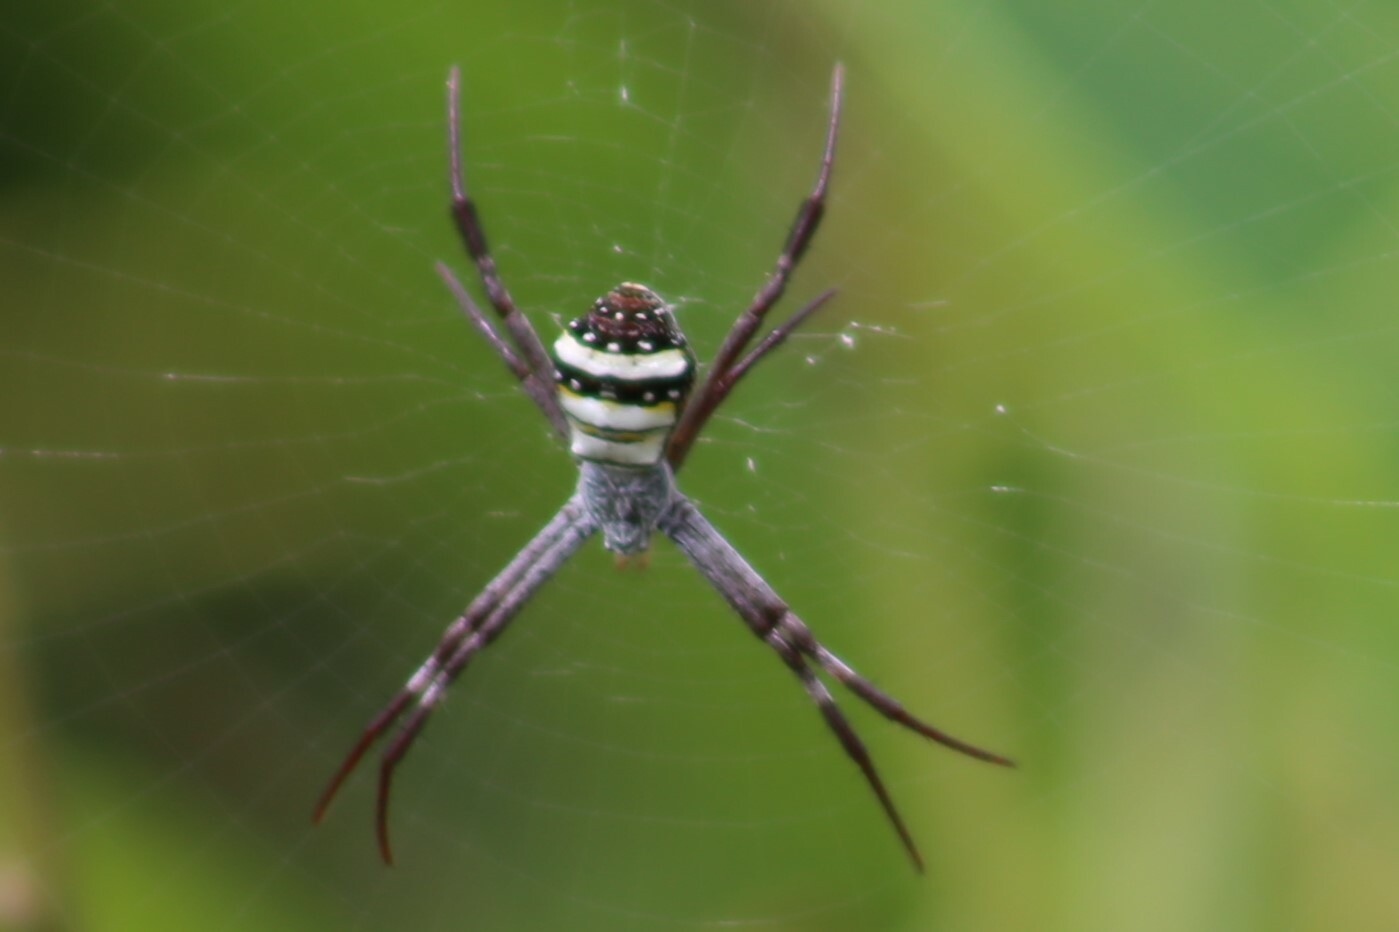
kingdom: Animalia
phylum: Arthropoda
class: Arachnida
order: Araneae
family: Araneidae
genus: Argiope
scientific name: Argiope aetherea
